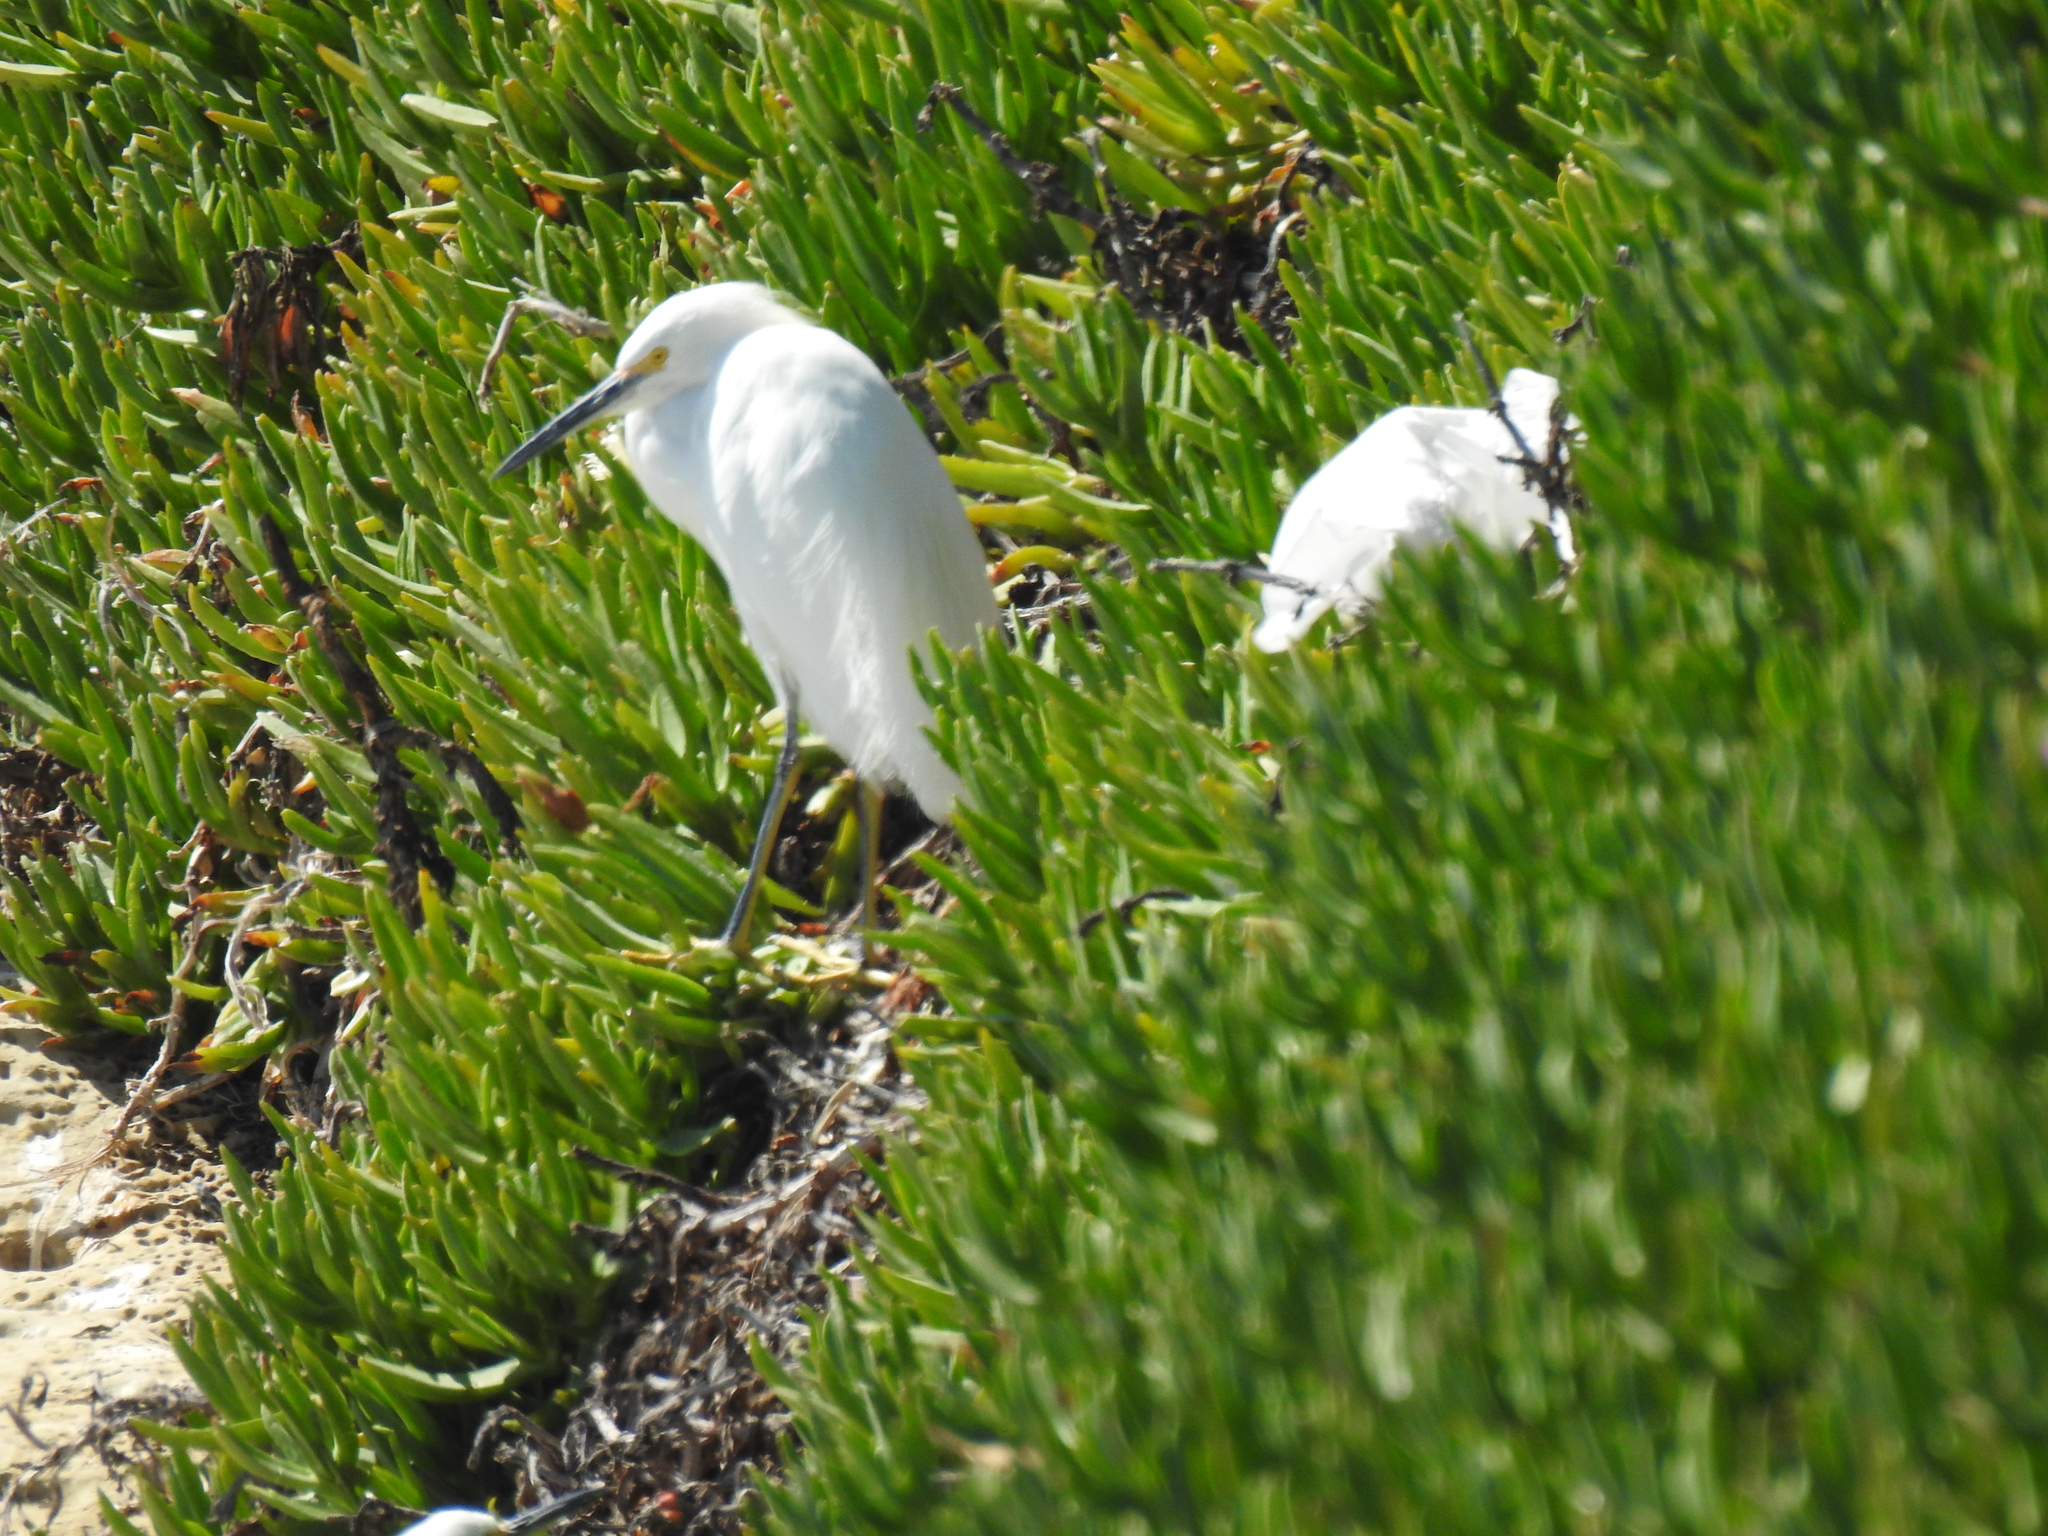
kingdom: Animalia
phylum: Chordata
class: Aves
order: Pelecaniformes
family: Ardeidae
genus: Egretta
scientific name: Egretta thula
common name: Snowy egret
